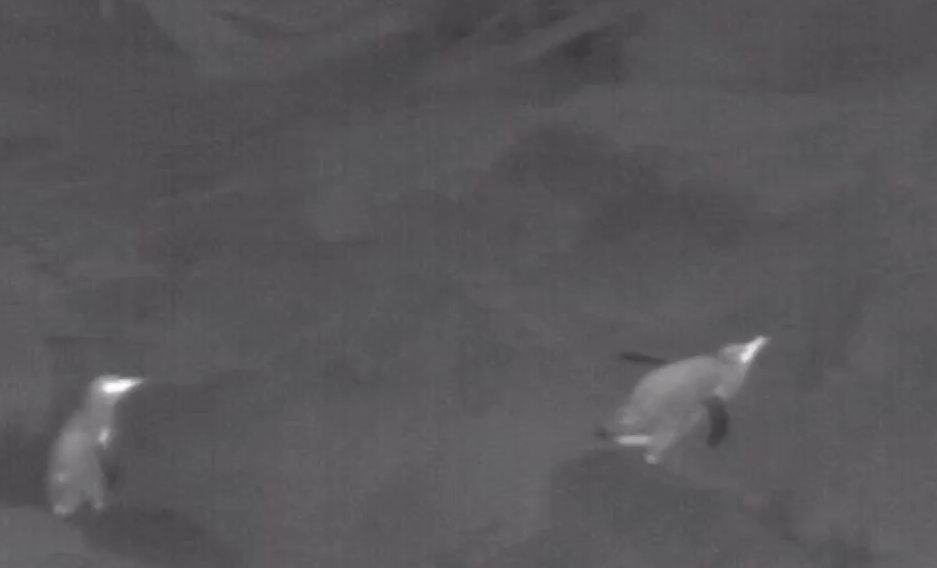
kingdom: Animalia
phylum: Chordata
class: Aves
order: Sphenisciformes
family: Spheniscidae
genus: Eudyptula
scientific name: Eudyptula minor
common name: Little penguin
